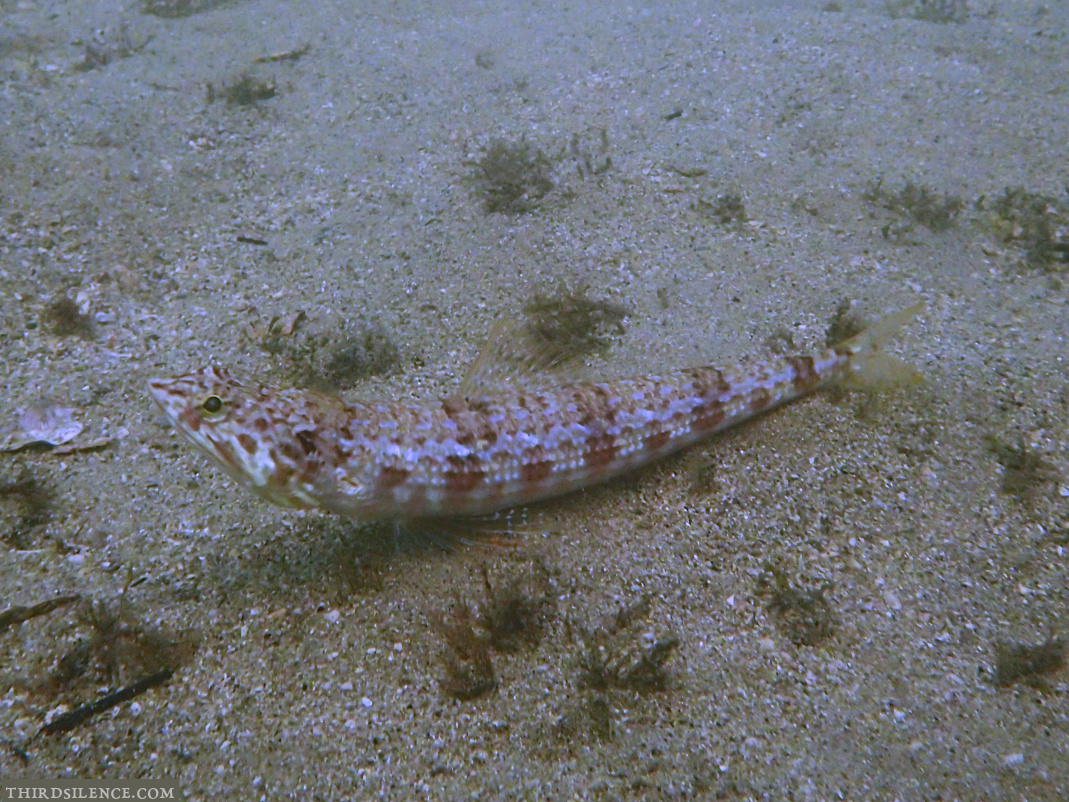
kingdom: Animalia
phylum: Chordata
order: Aulopiformes
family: Synodontidae
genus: Synodus
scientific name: Synodus dermatogenys
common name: Banded lizardfish
